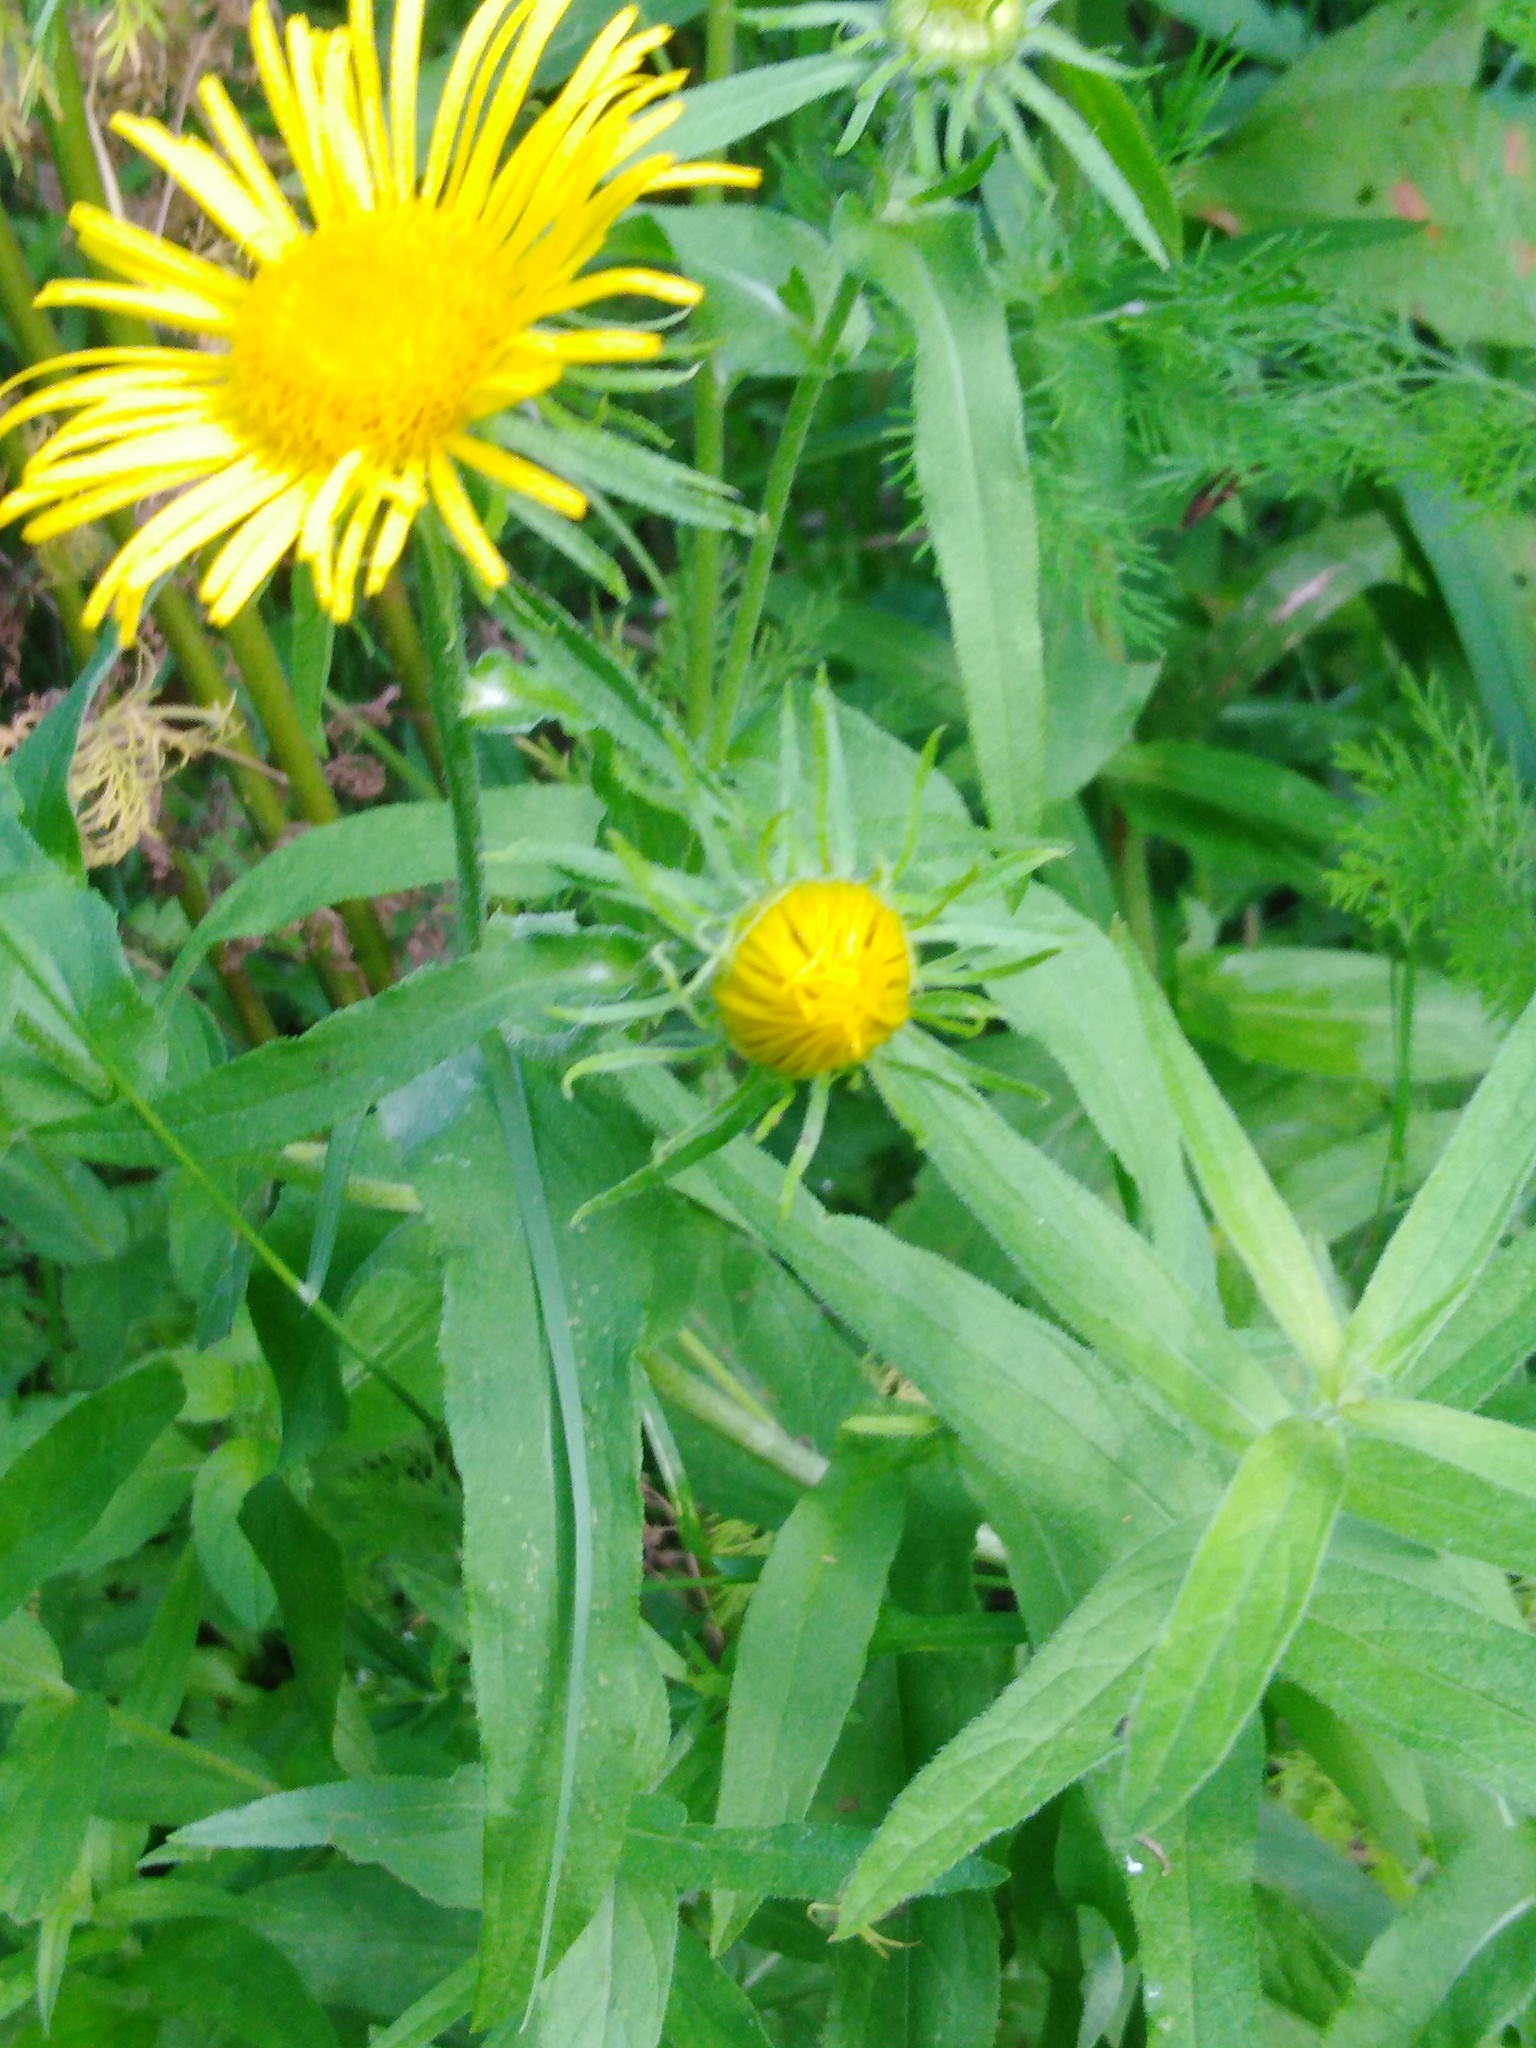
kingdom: Plantae
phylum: Tracheophyta
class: Magnoliopsida
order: Asterales
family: Asteraceae
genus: Pentanema
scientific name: Pentanema britannicum
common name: British elecampane
